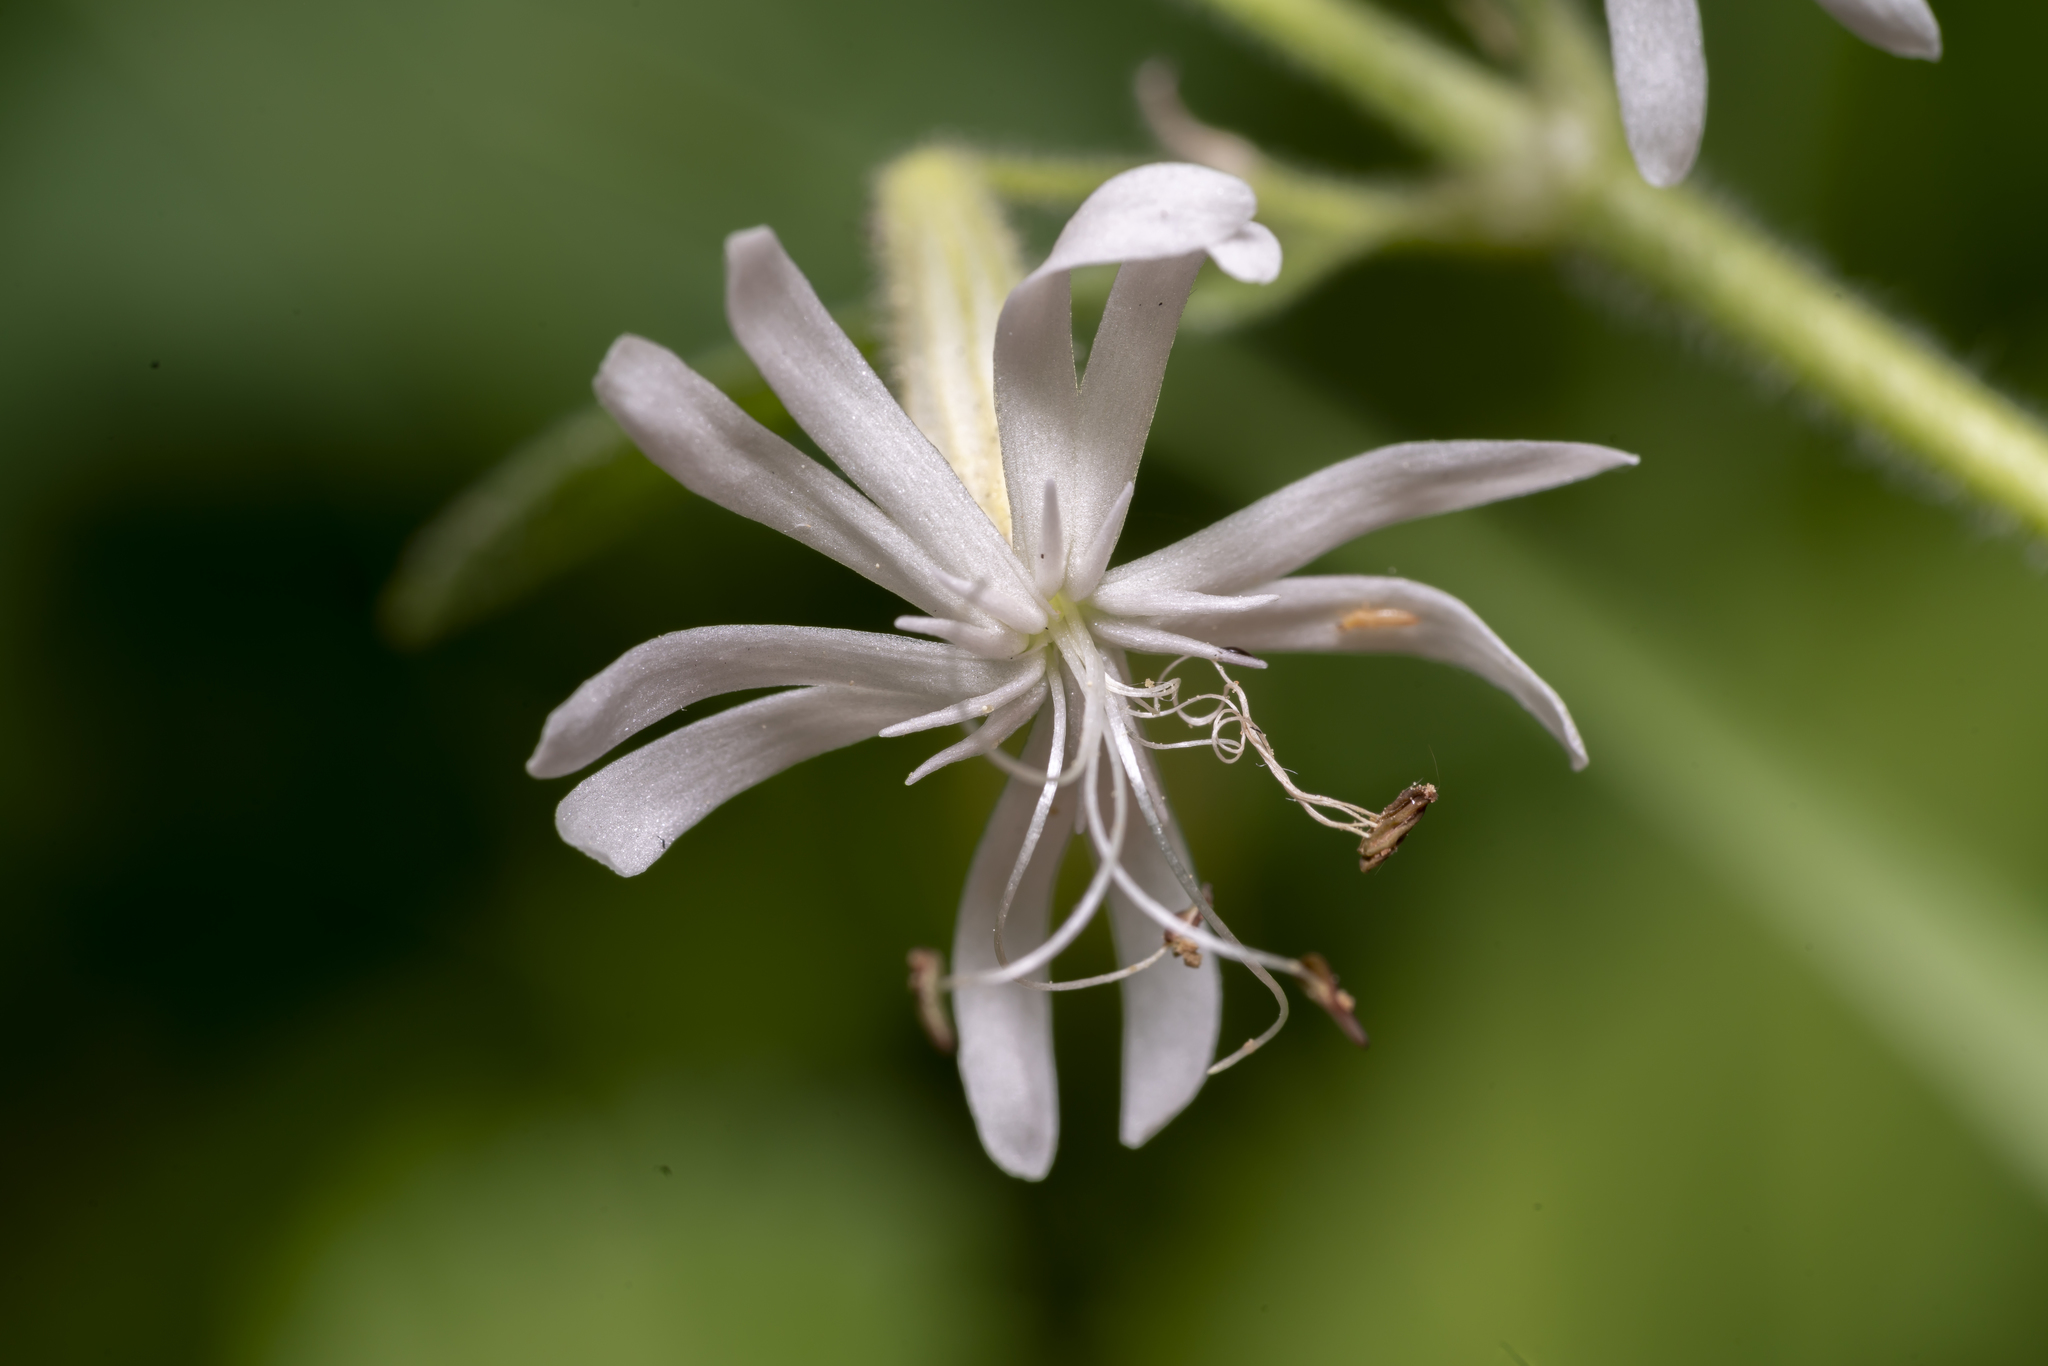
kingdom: Plantae
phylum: Tracheophyta
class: Magnoliopsida
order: Caryophyllales
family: Caryophyllaceae
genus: Silene
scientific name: Silene nutans
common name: Nottingham catchfly
